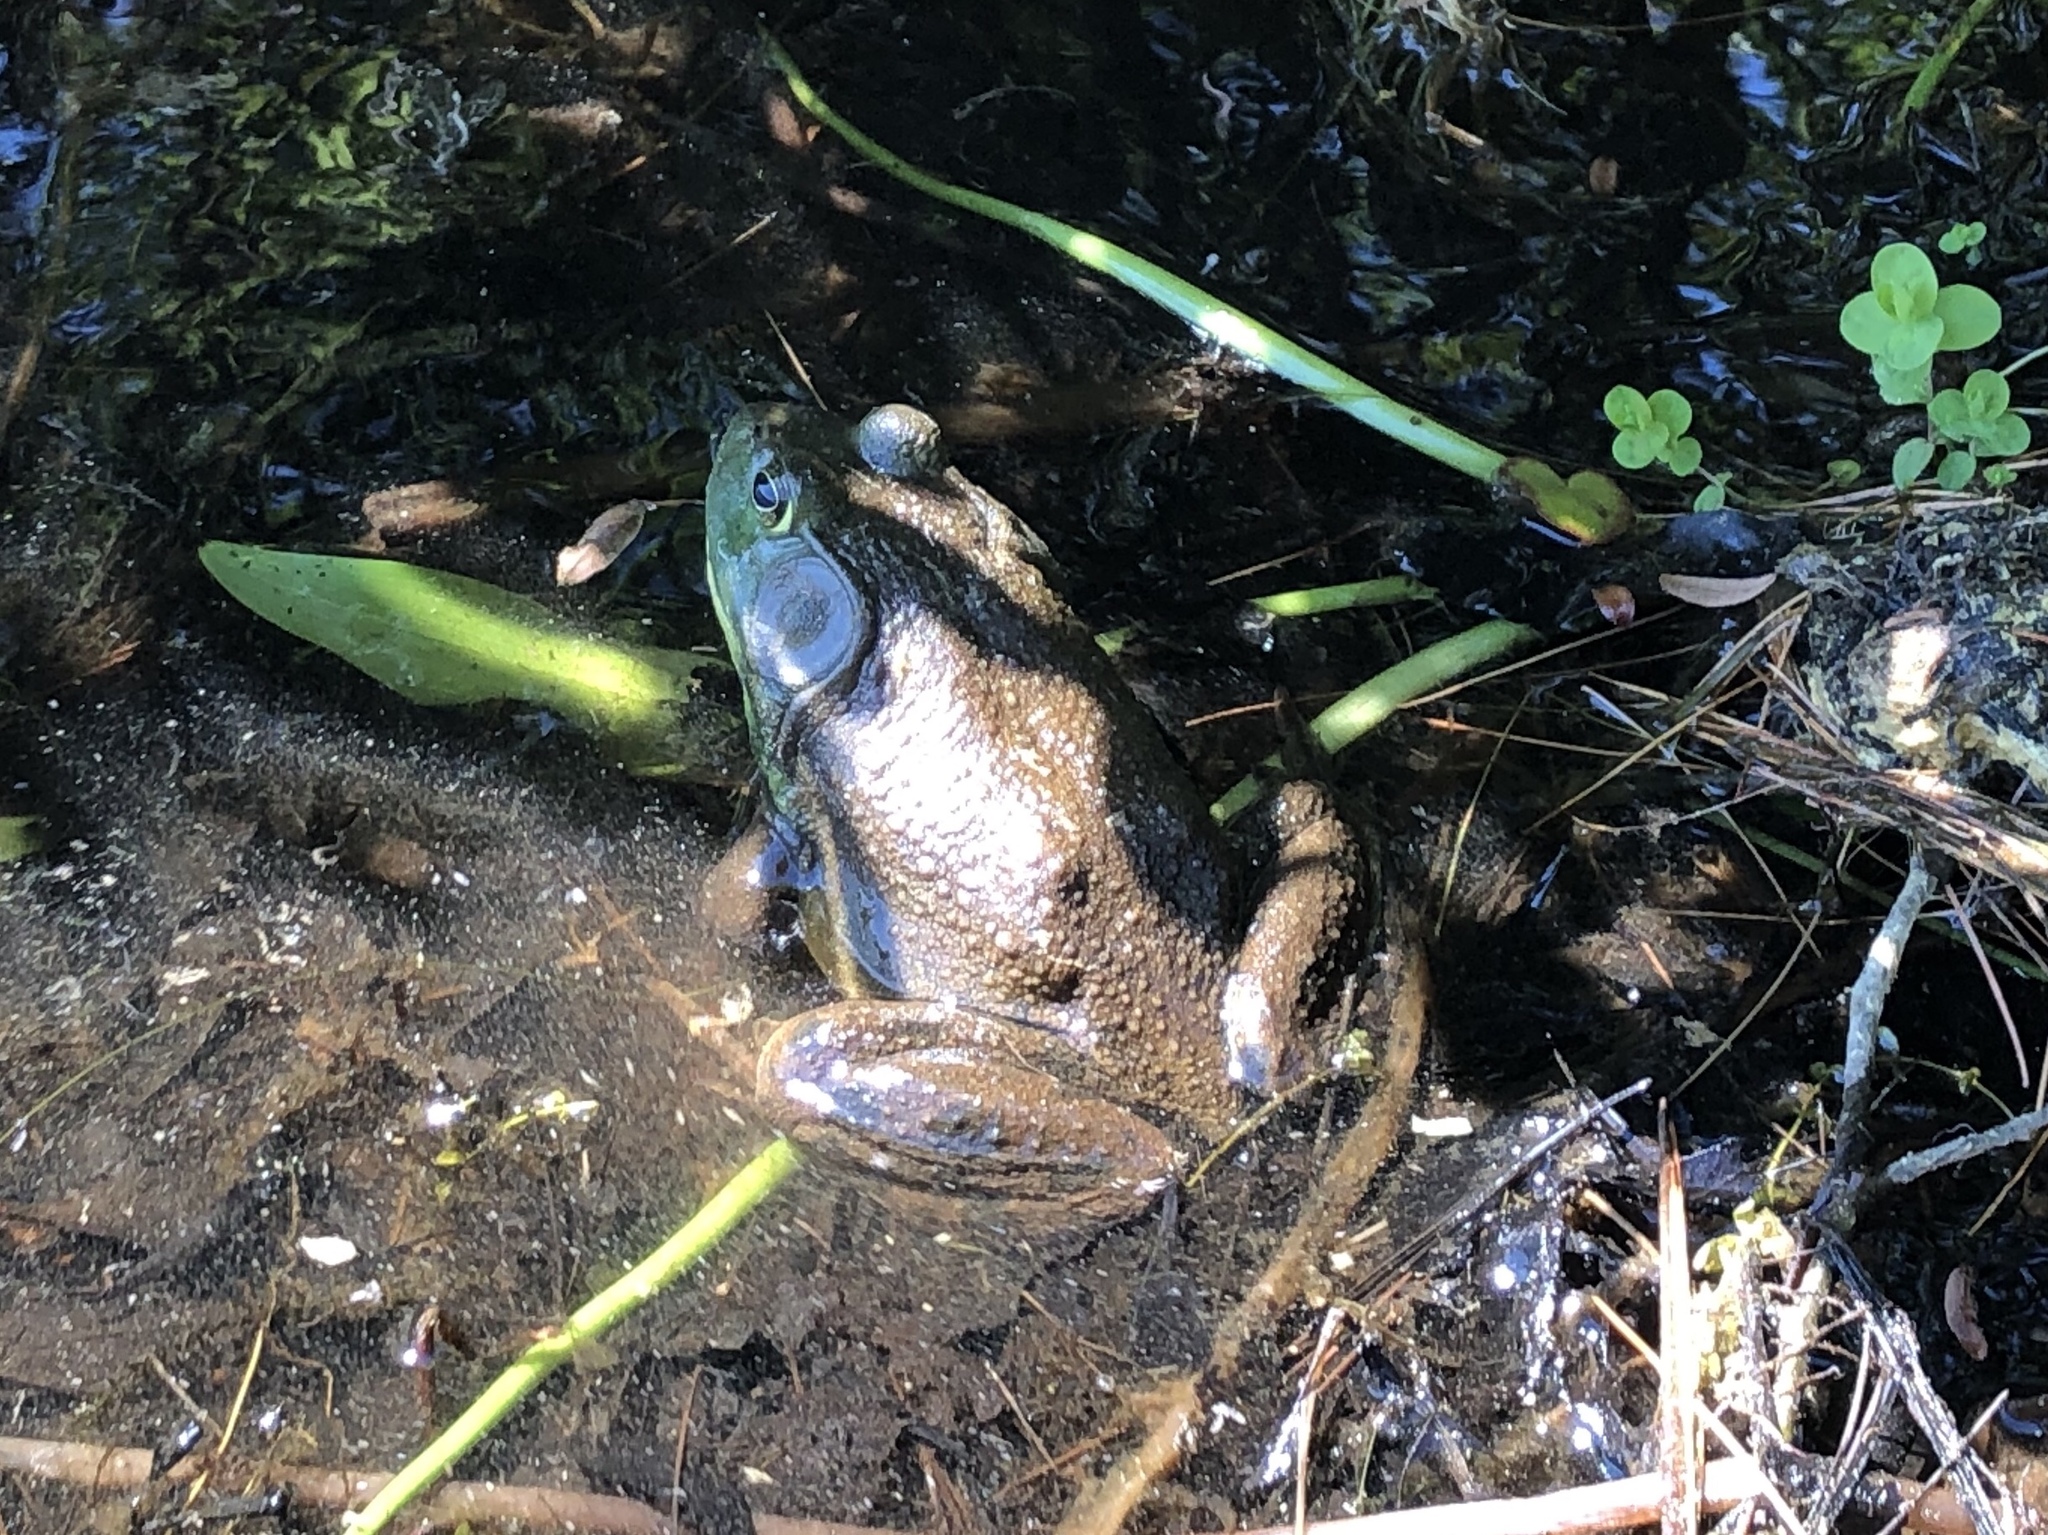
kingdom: Animalia
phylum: Chordata
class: Amphibia
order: Anura
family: Ranidae
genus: Lithobates
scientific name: Lithobates catesbeianus
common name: American bullfrog
